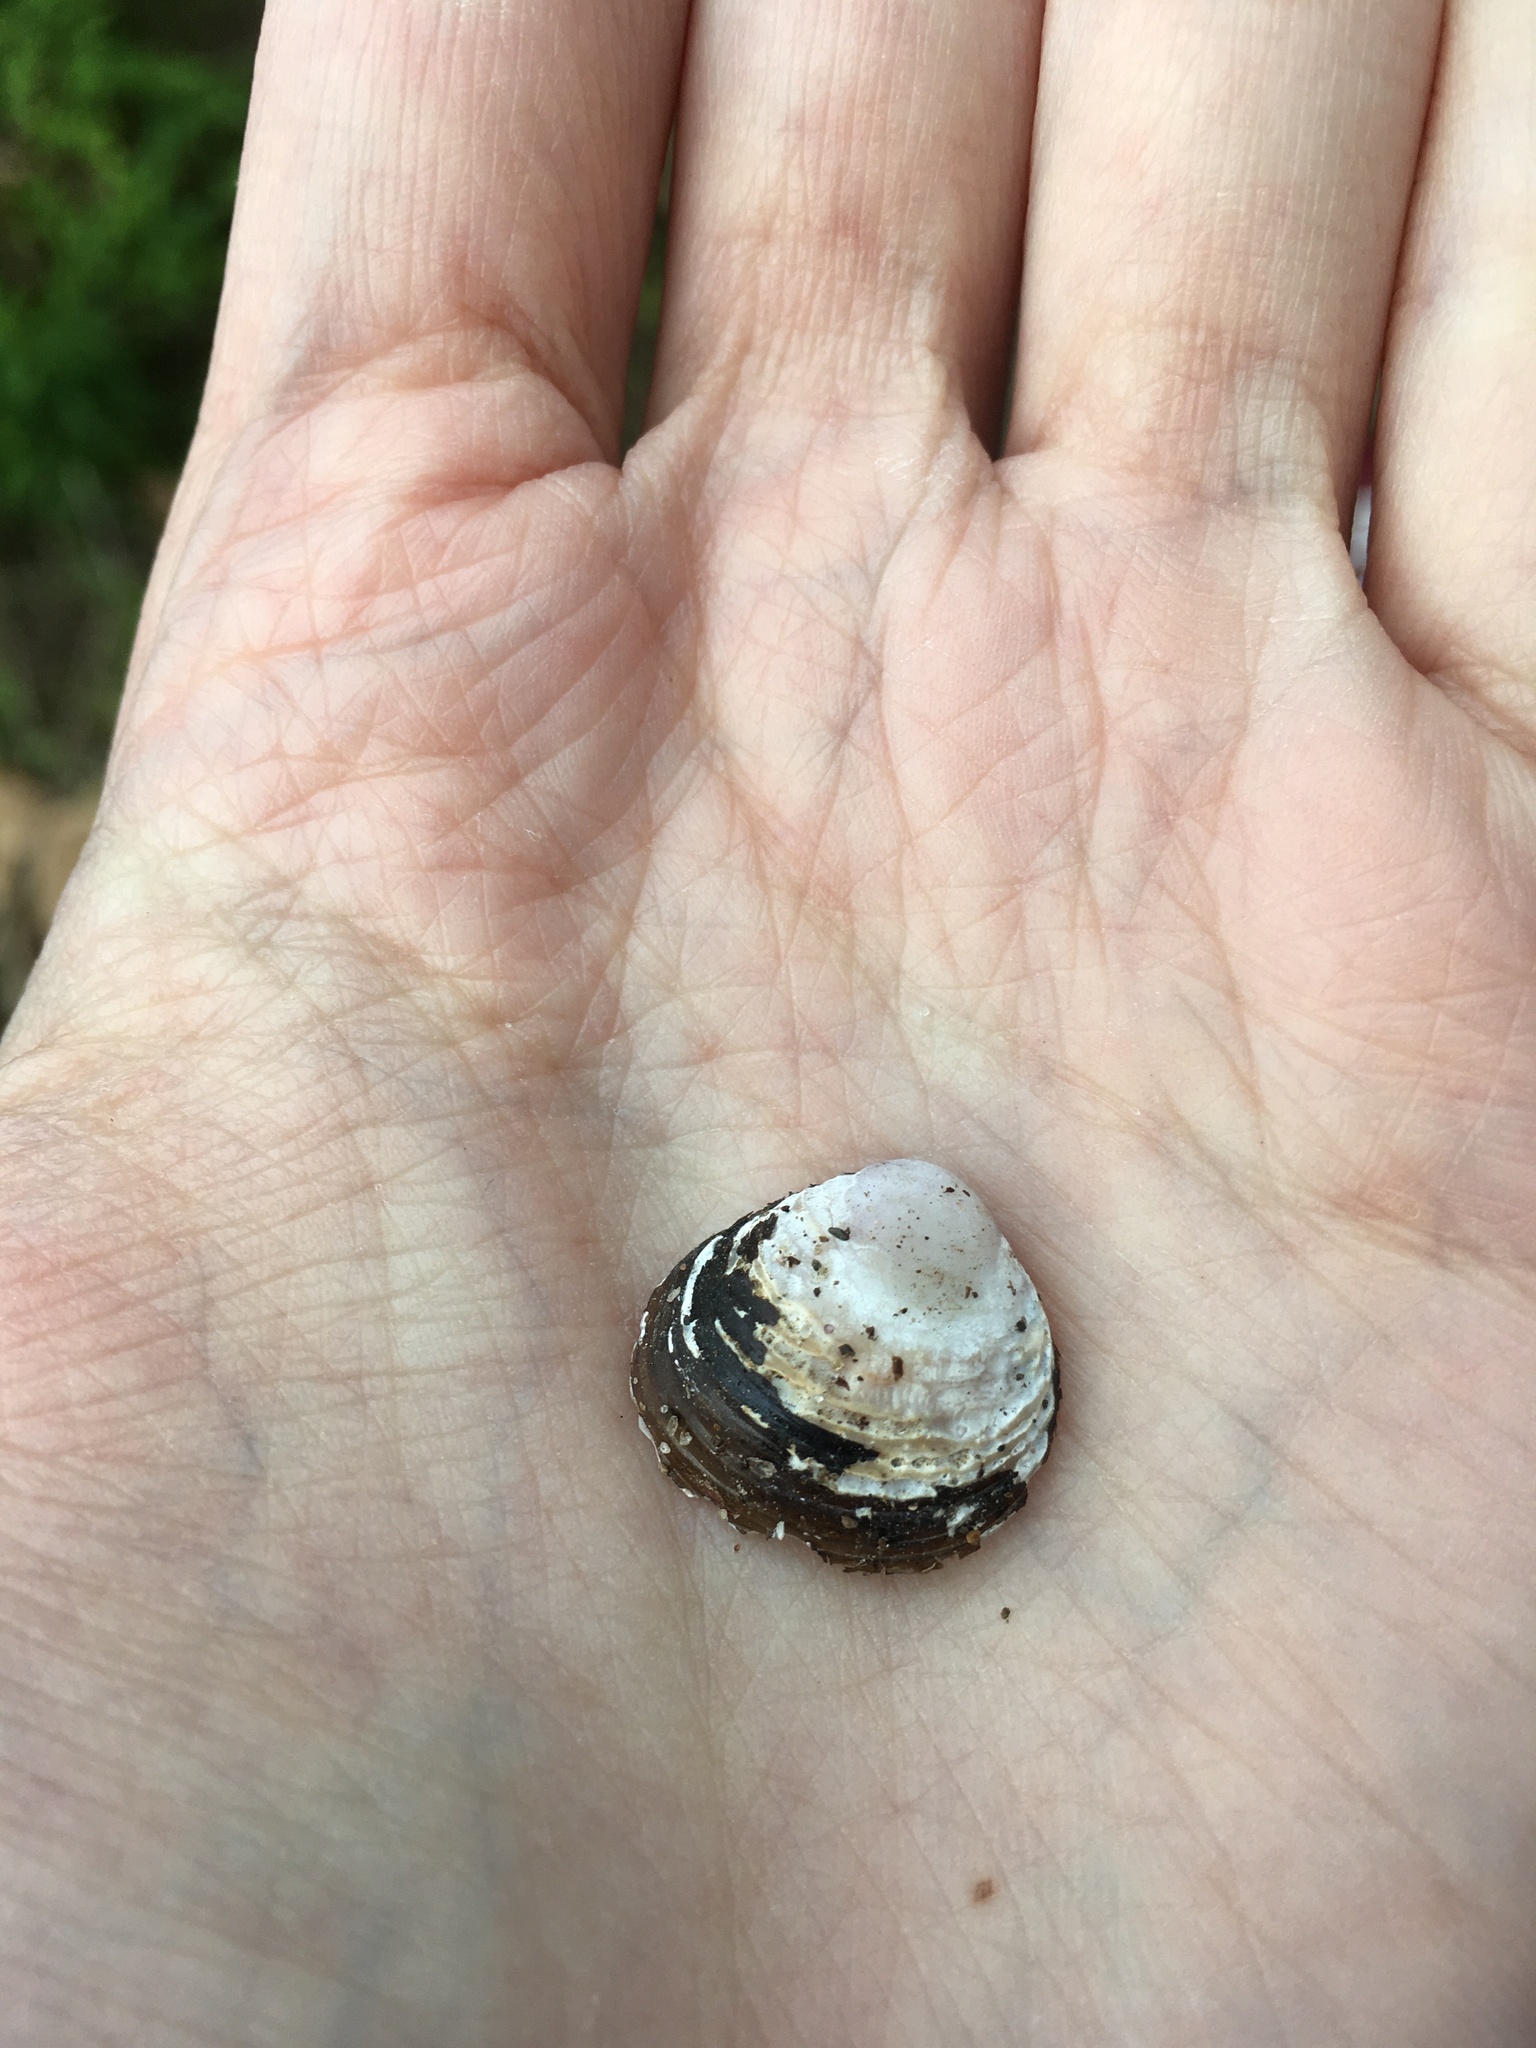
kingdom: Animalia
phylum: Mollusca
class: Bivalvia
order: Venerida
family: Cyrenidae
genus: Corbicula
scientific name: Corbicula fluminea
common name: Asian clam
